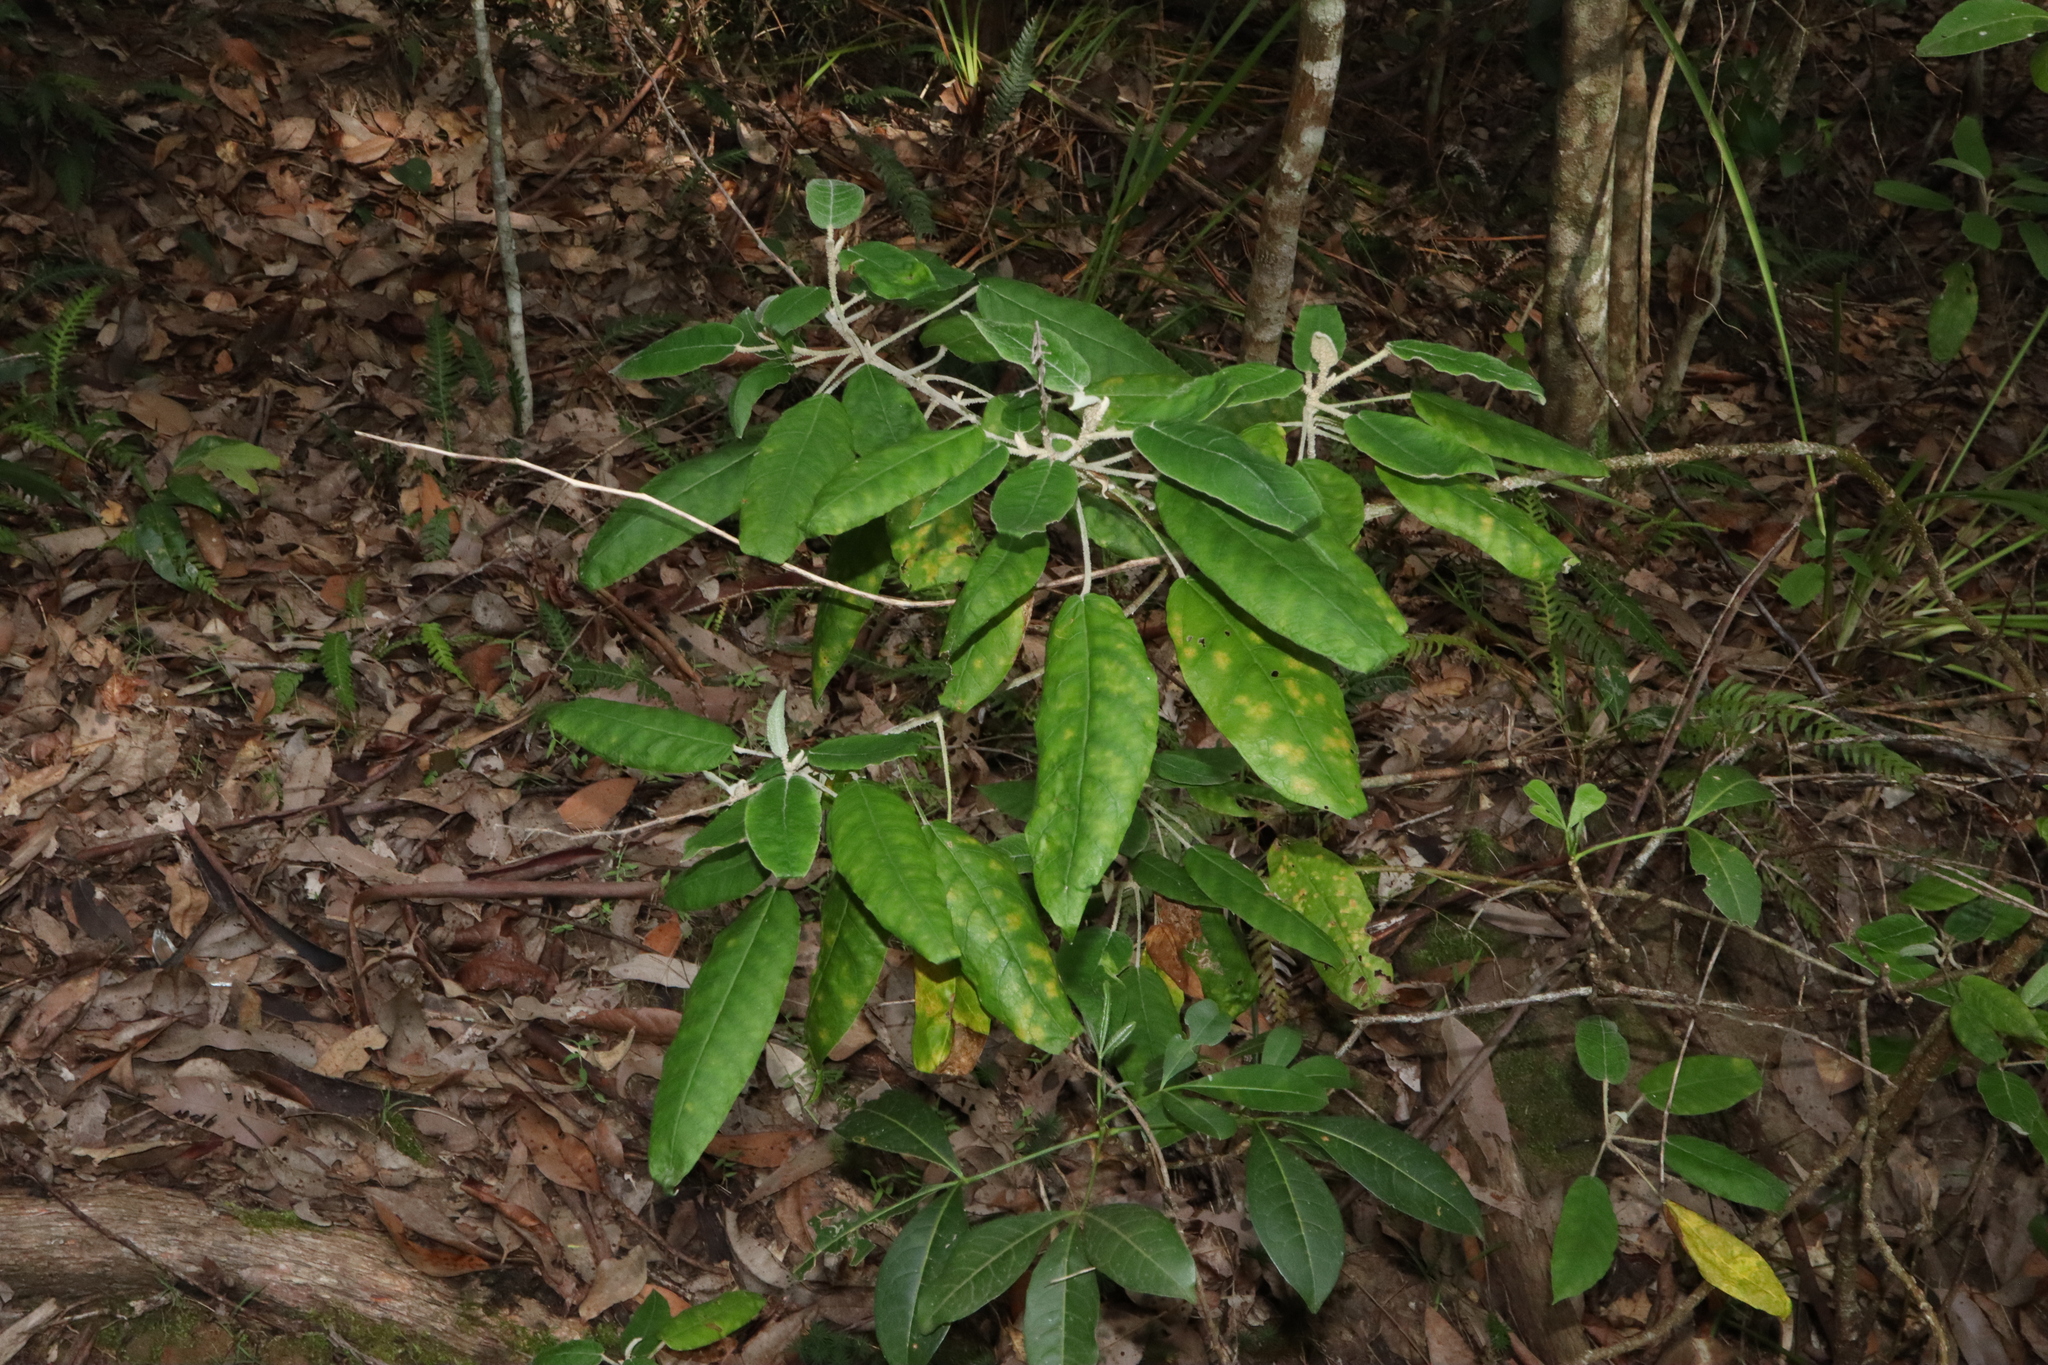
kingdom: Plantae
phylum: Tracheophyta
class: Magnoliopsida
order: Apiales
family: Araliaceae
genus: Astrotricha
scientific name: Astrotricha latifolia
